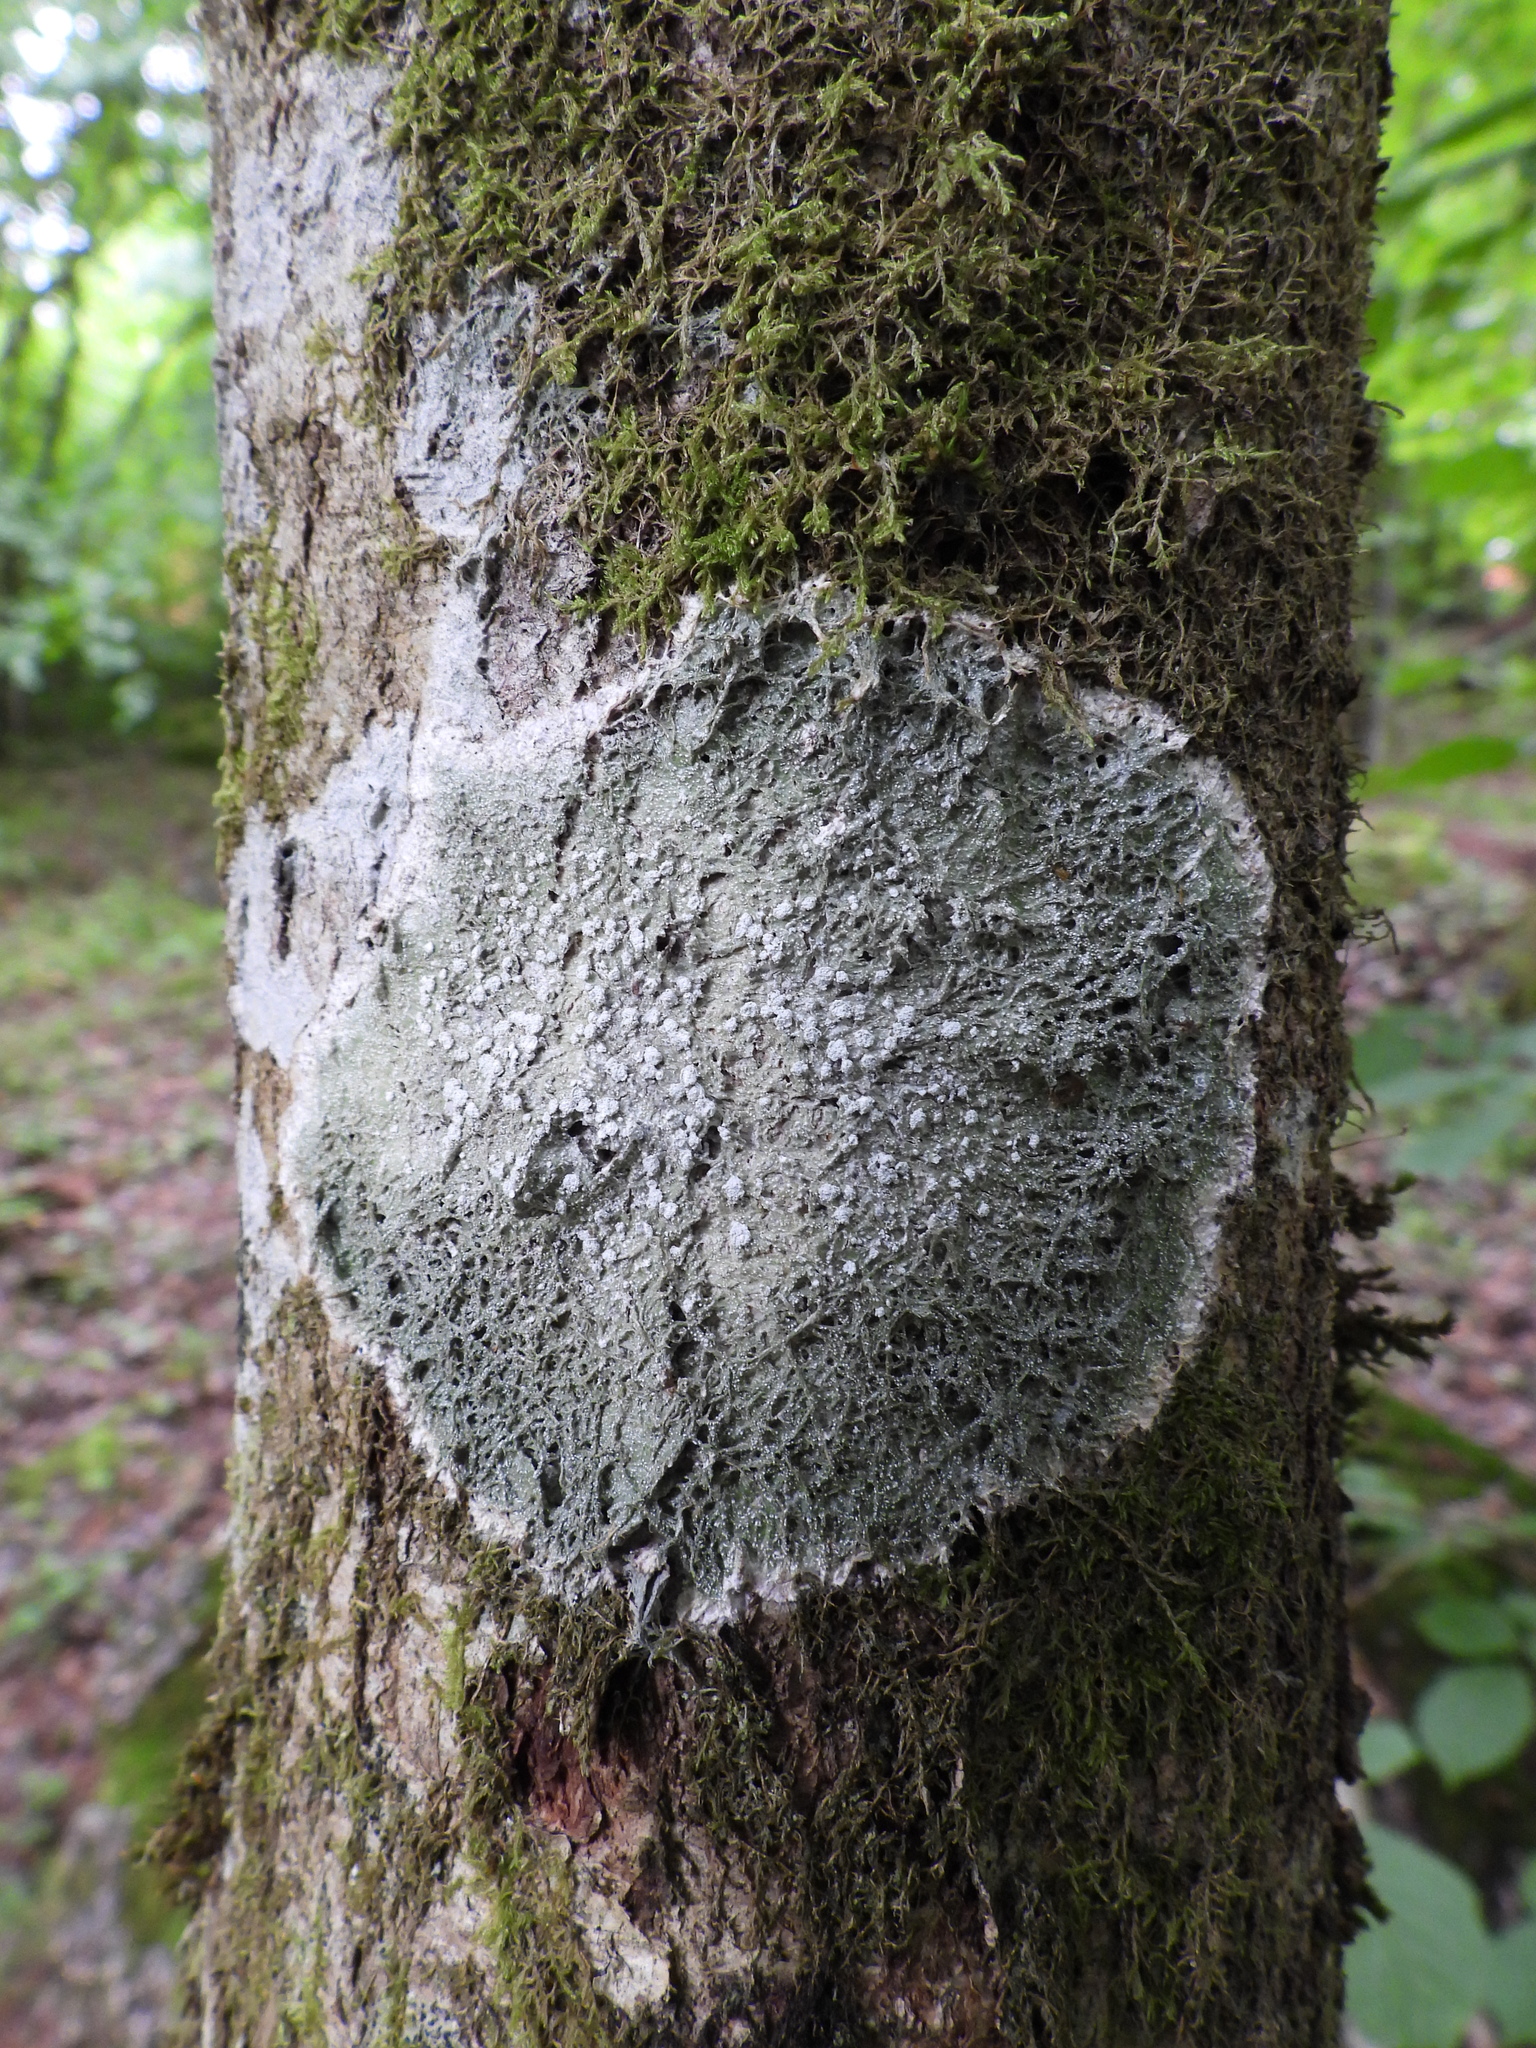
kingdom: Fungi
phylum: Ascomycota
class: Lecanoromycetes
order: Pertusariales
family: Pertusariaceae
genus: Lepra
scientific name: Lepra amara
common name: Bitter wart lichen
